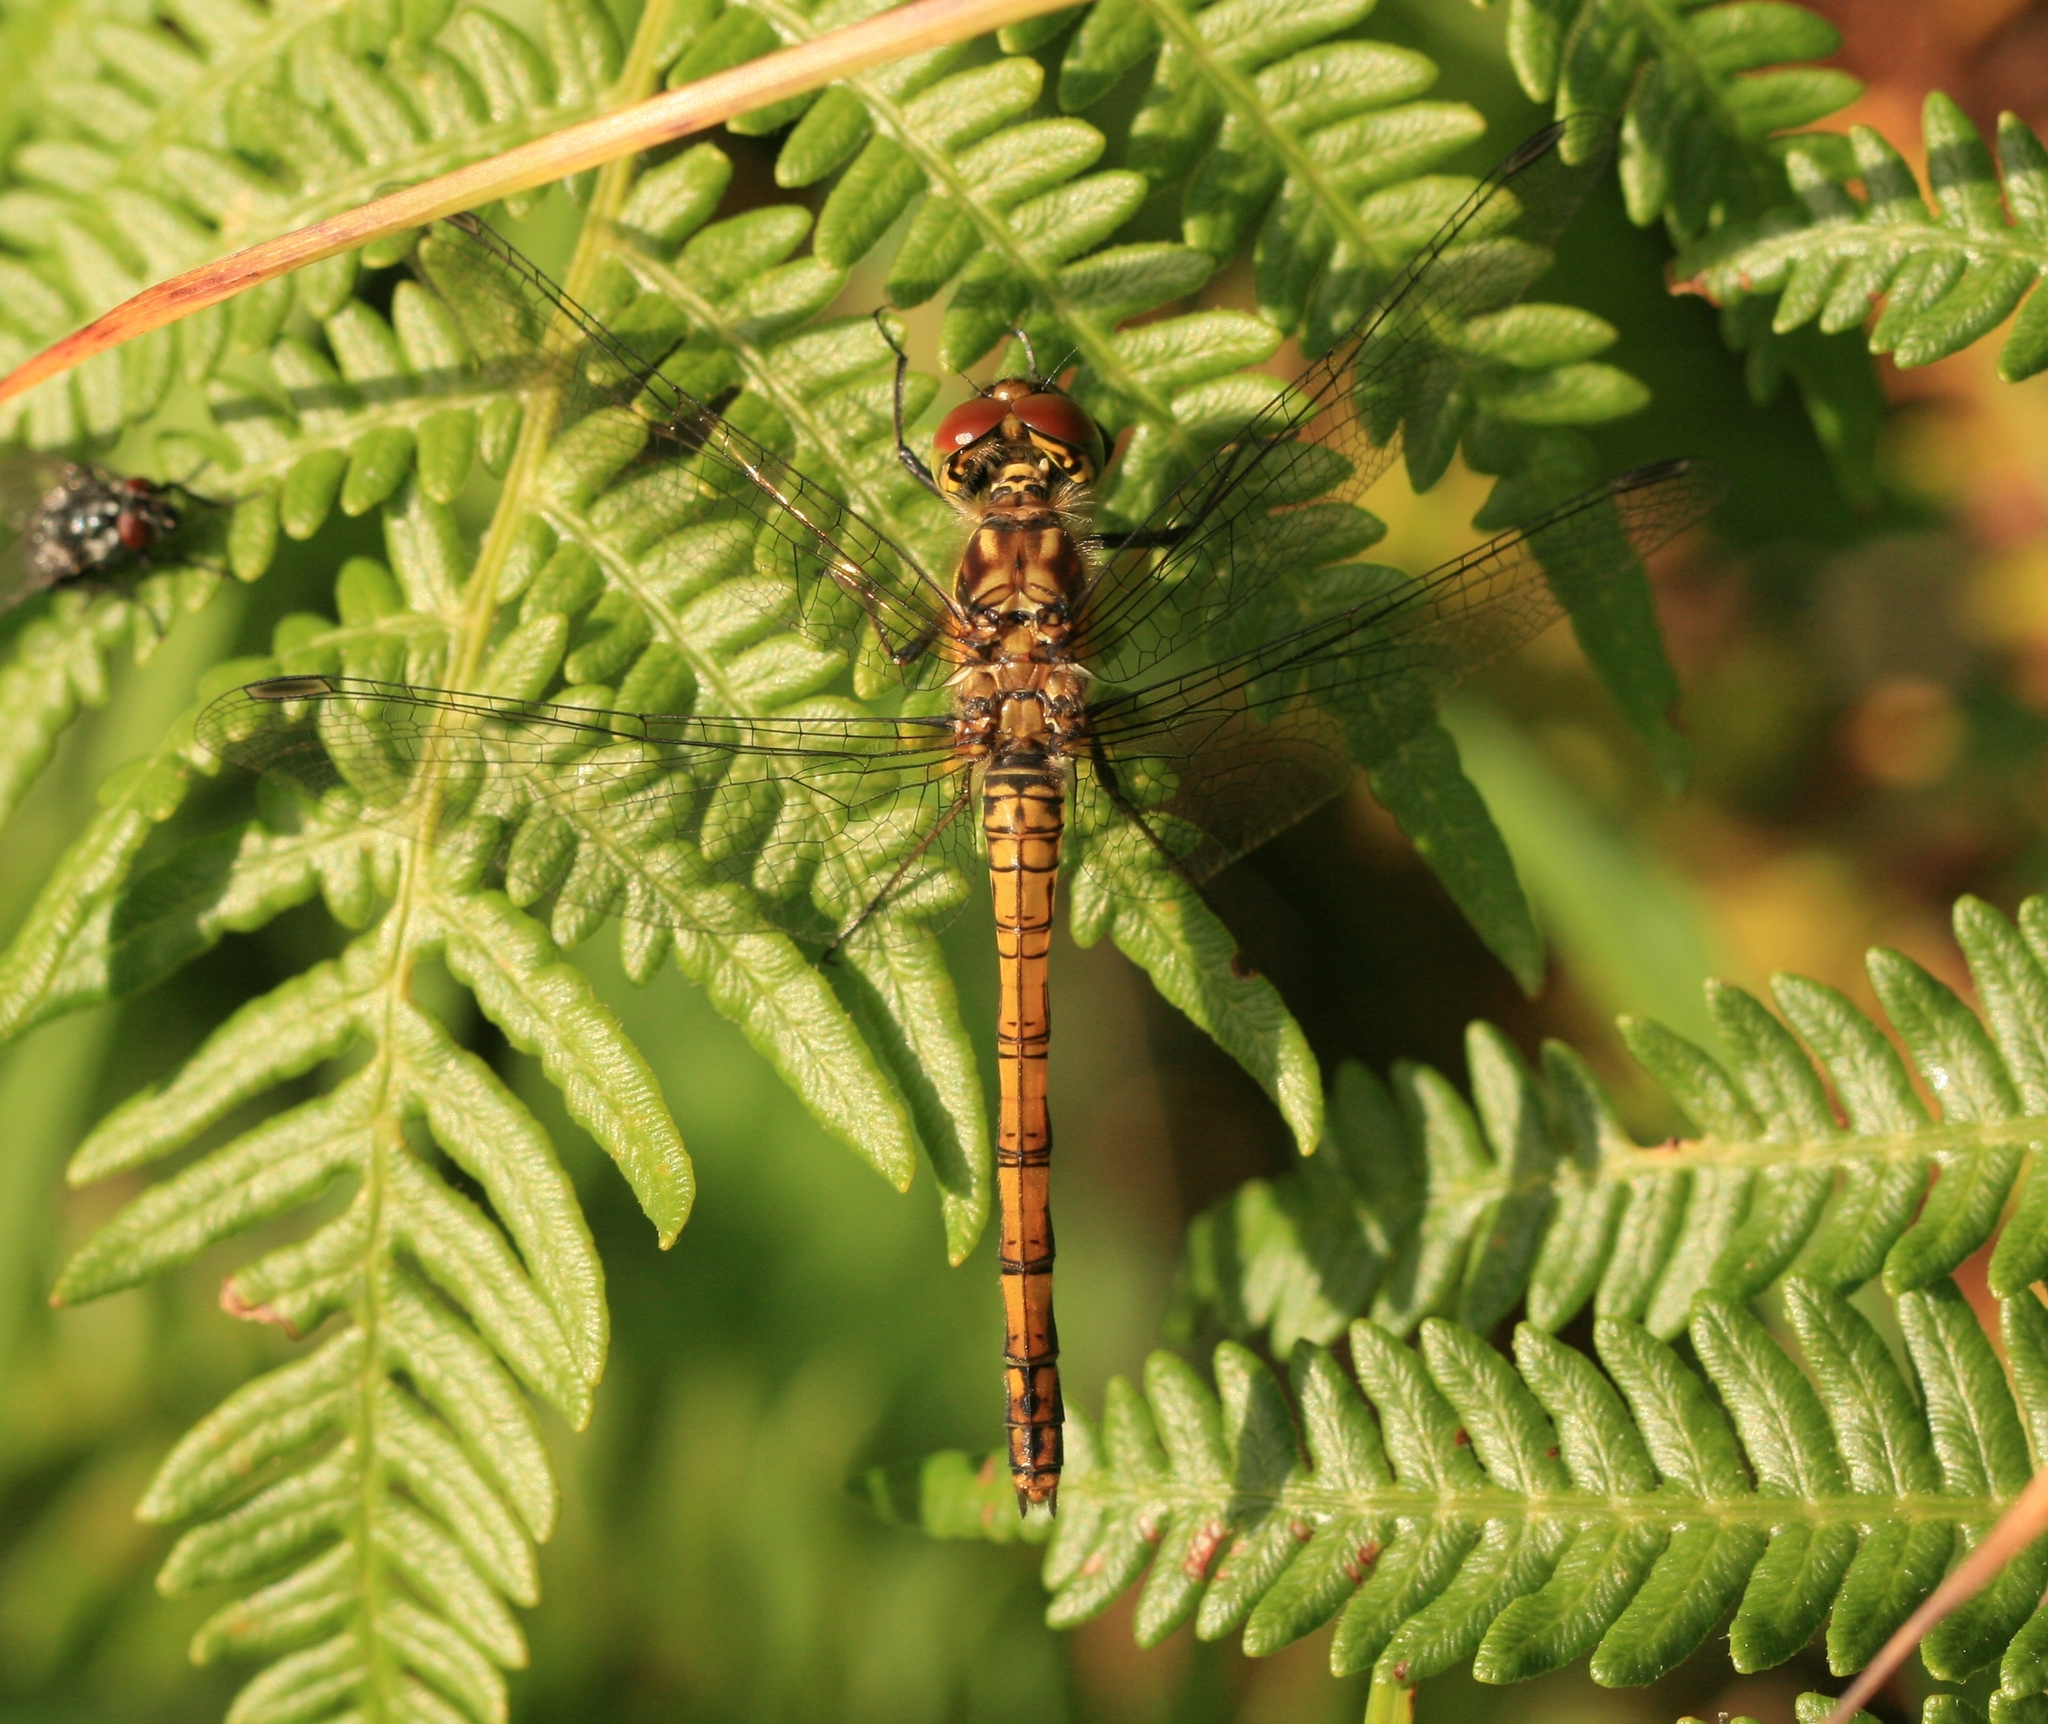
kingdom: Animalia
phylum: Arthropoda
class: Insecta
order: Odonata
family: Libellulidae
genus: Sympetrum
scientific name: Sympetrum striolatum
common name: Common darter
